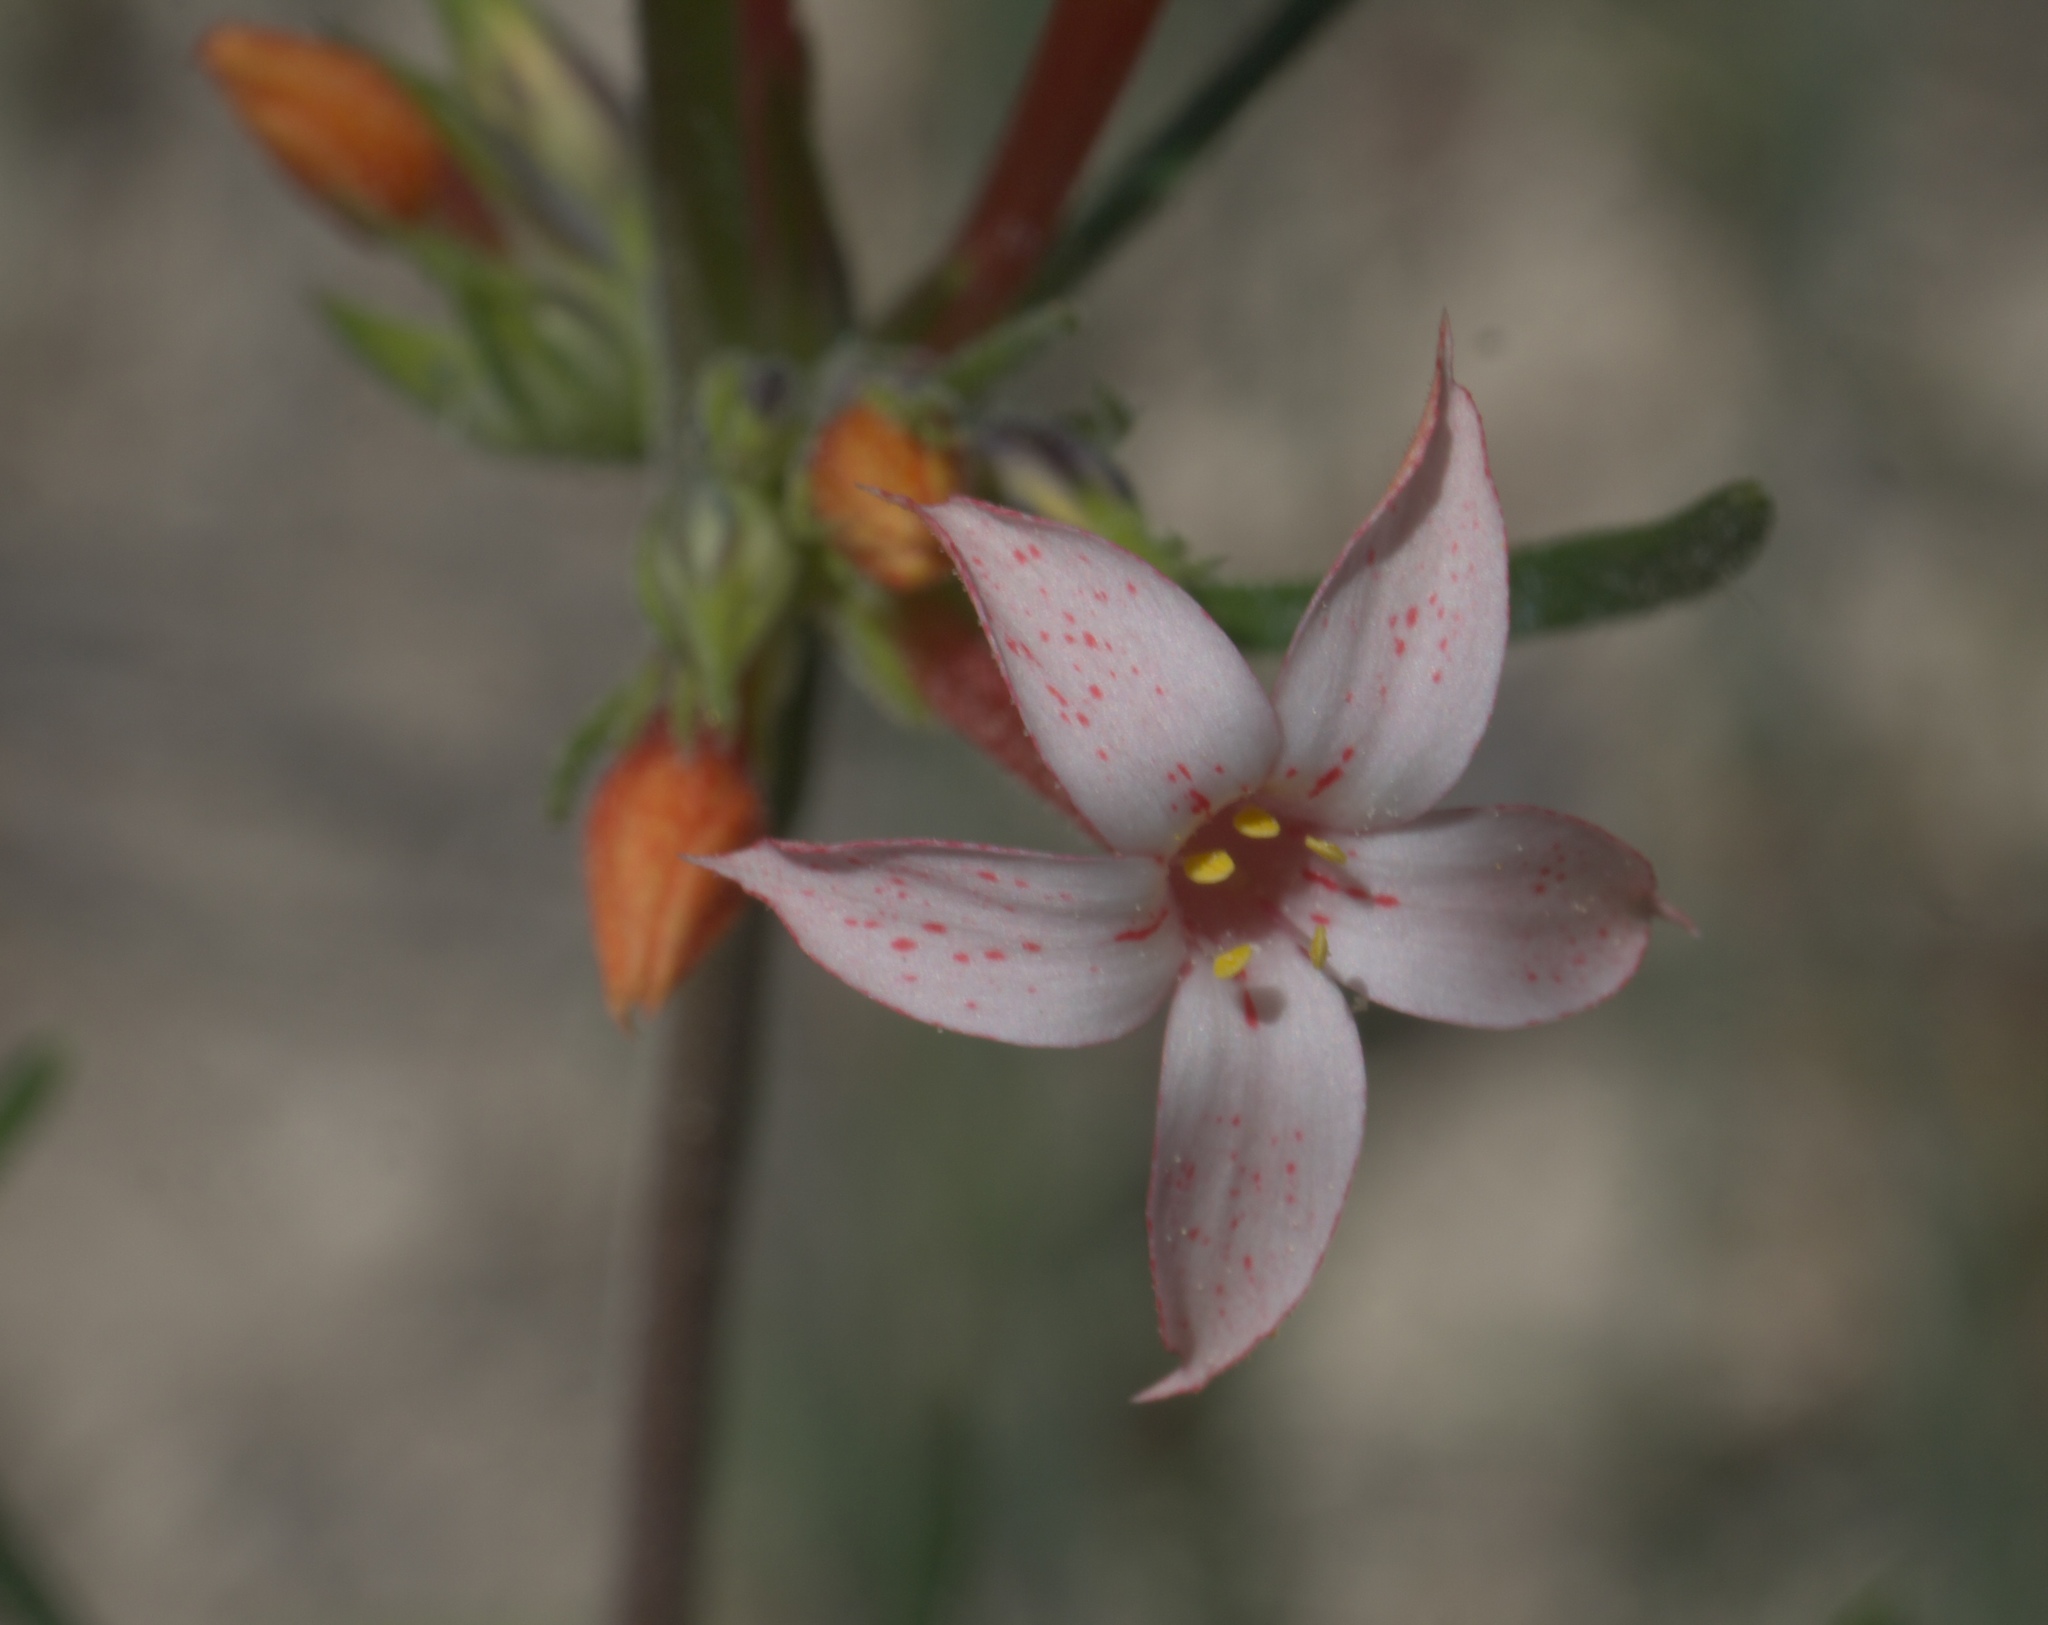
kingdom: Plantae
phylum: Tracheophyta
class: Magnoliopsida
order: Ericales
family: Polemoniaceae
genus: Ipomopsis
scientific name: Ipomopsis aggregata
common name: Scarlet gilia
